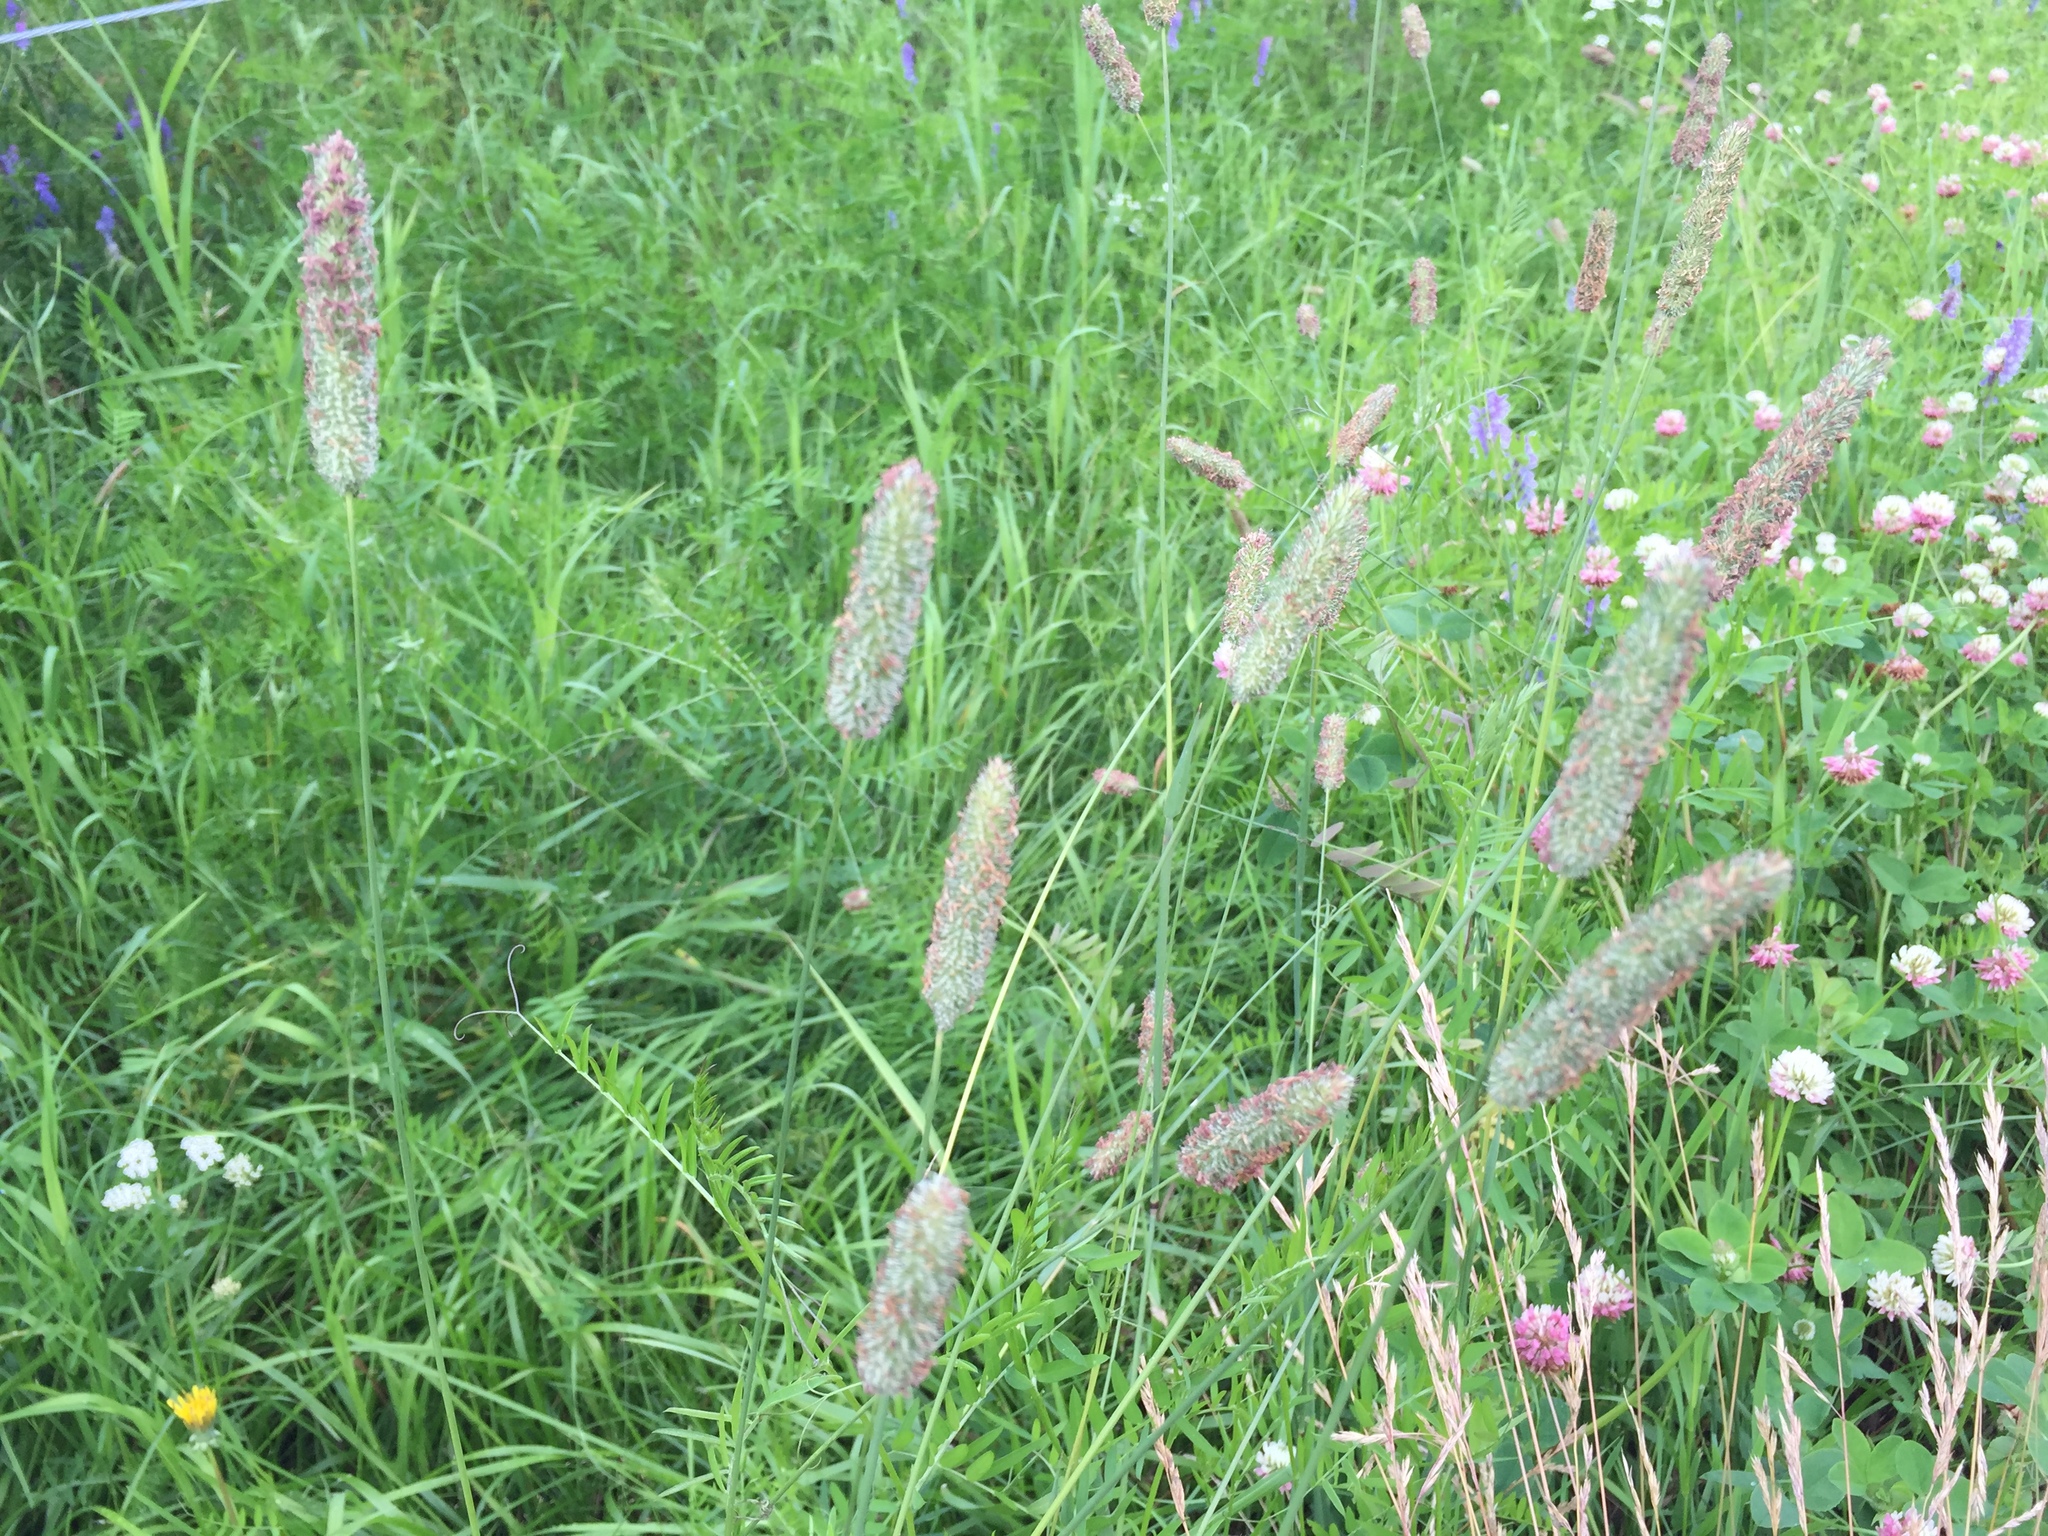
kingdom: Plantae
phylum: Tracheophyta
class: Liliopsida
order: Poales
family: Poaceae
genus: Phleum
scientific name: Phleum pratense
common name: Timothy grass
